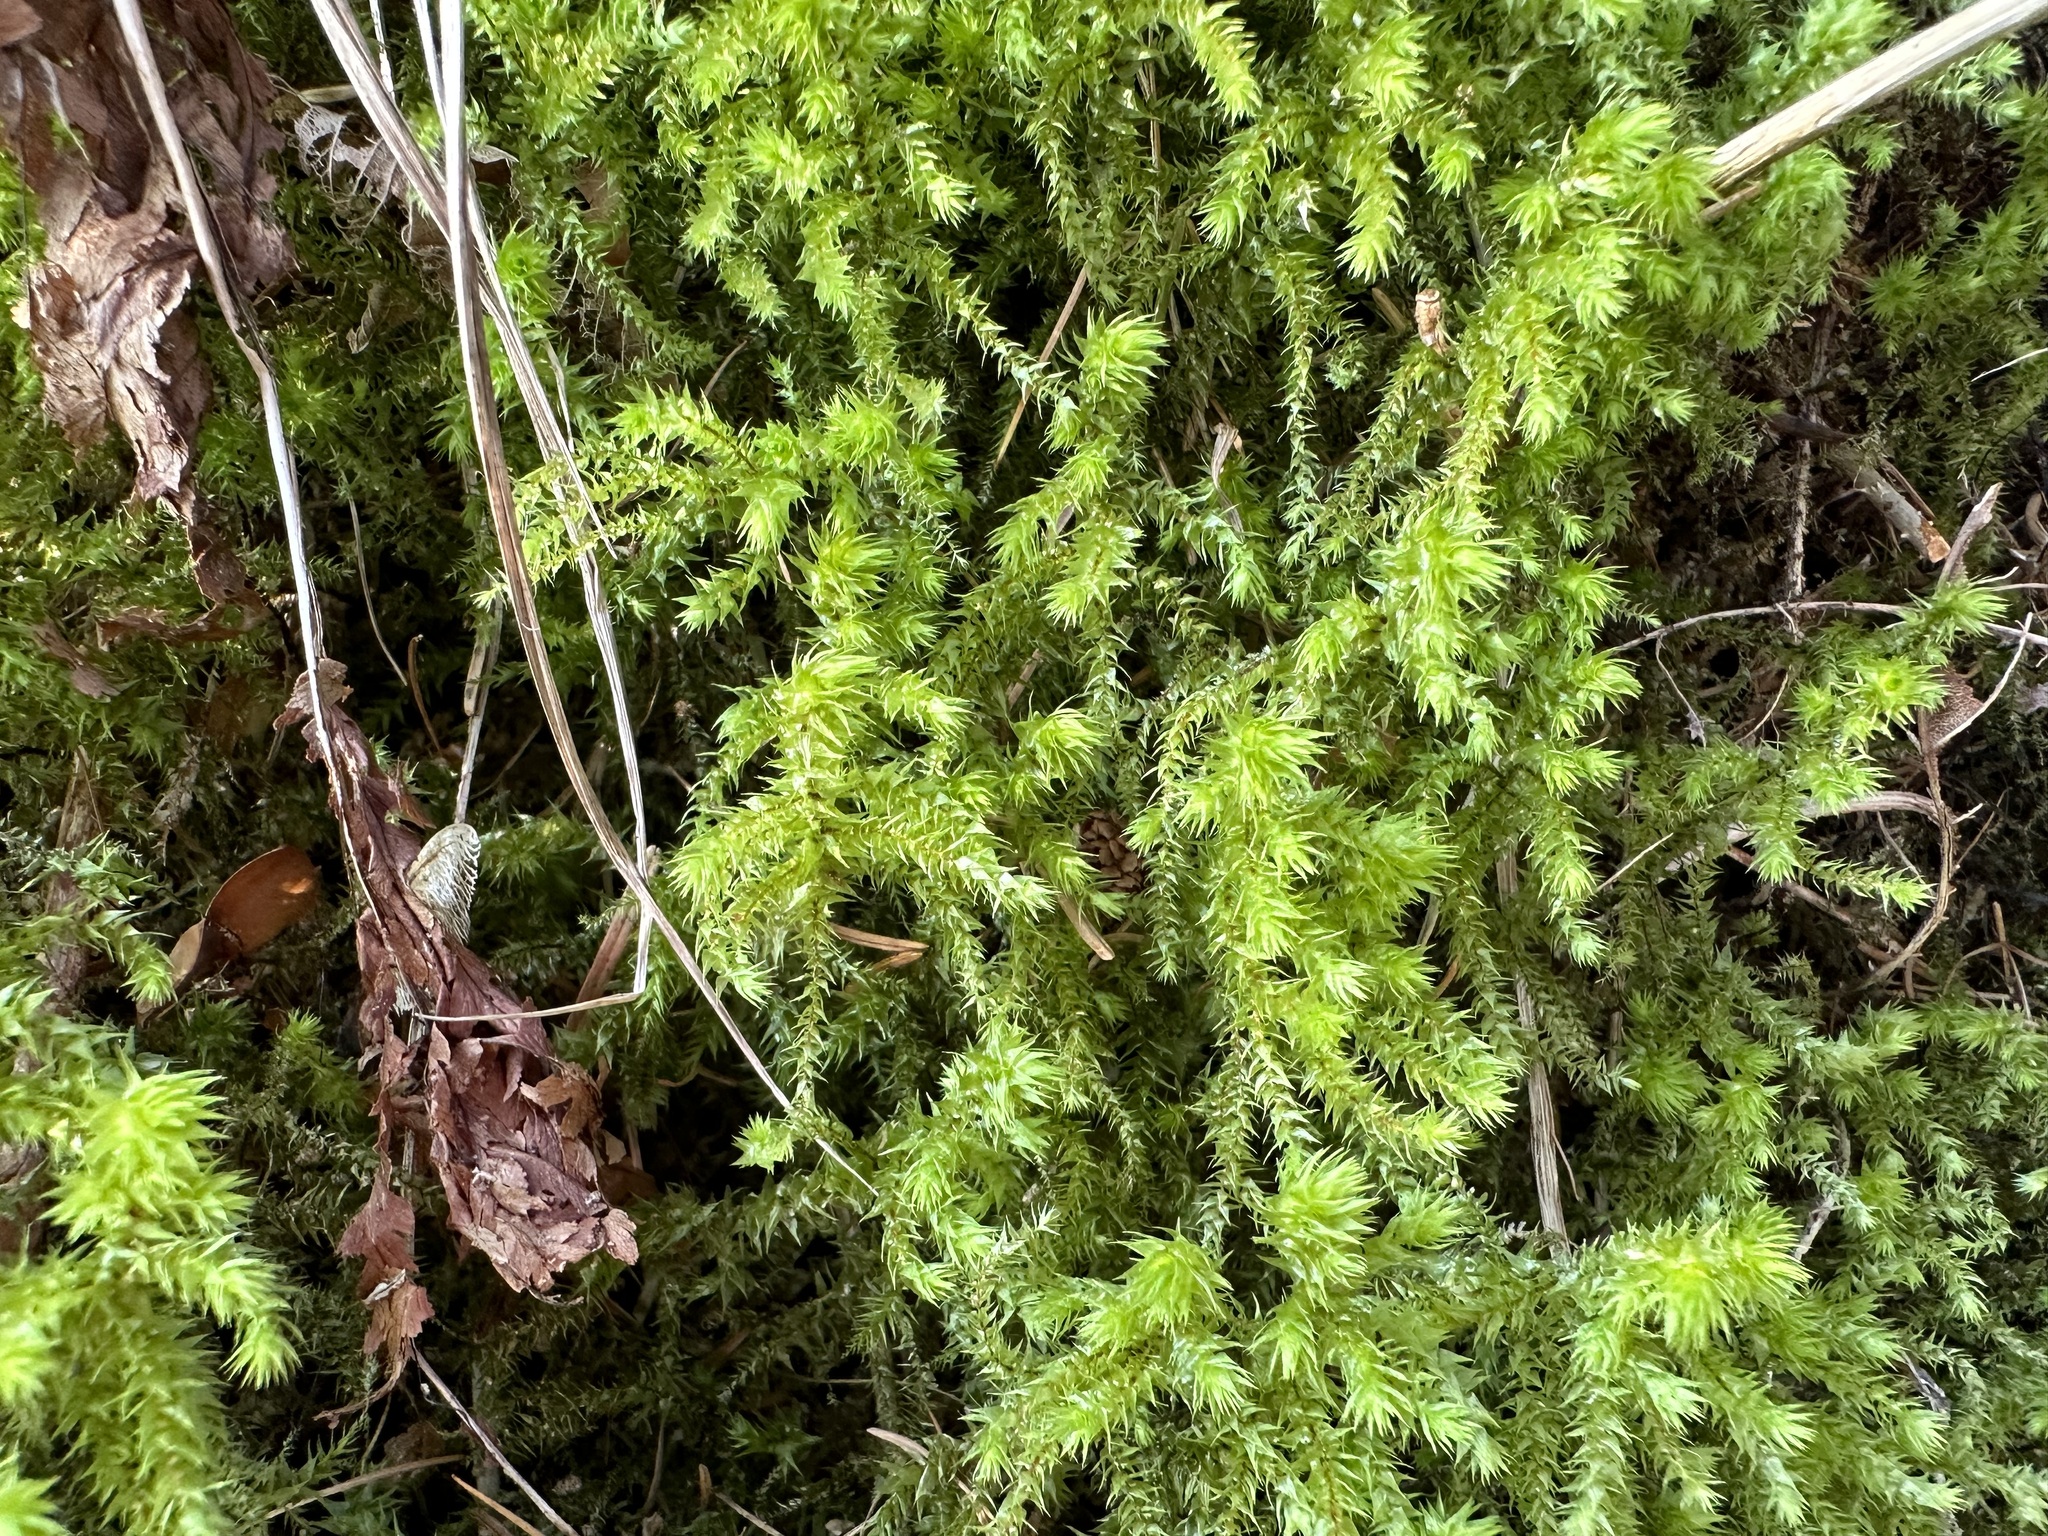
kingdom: Plantae
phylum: Bryophyta
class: Bryopsida
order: Hypnales
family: Hylocomiaceae
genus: Hylocomiadelphus
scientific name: Hylocomiadelphus triquetrus
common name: Rough goose neck moss
